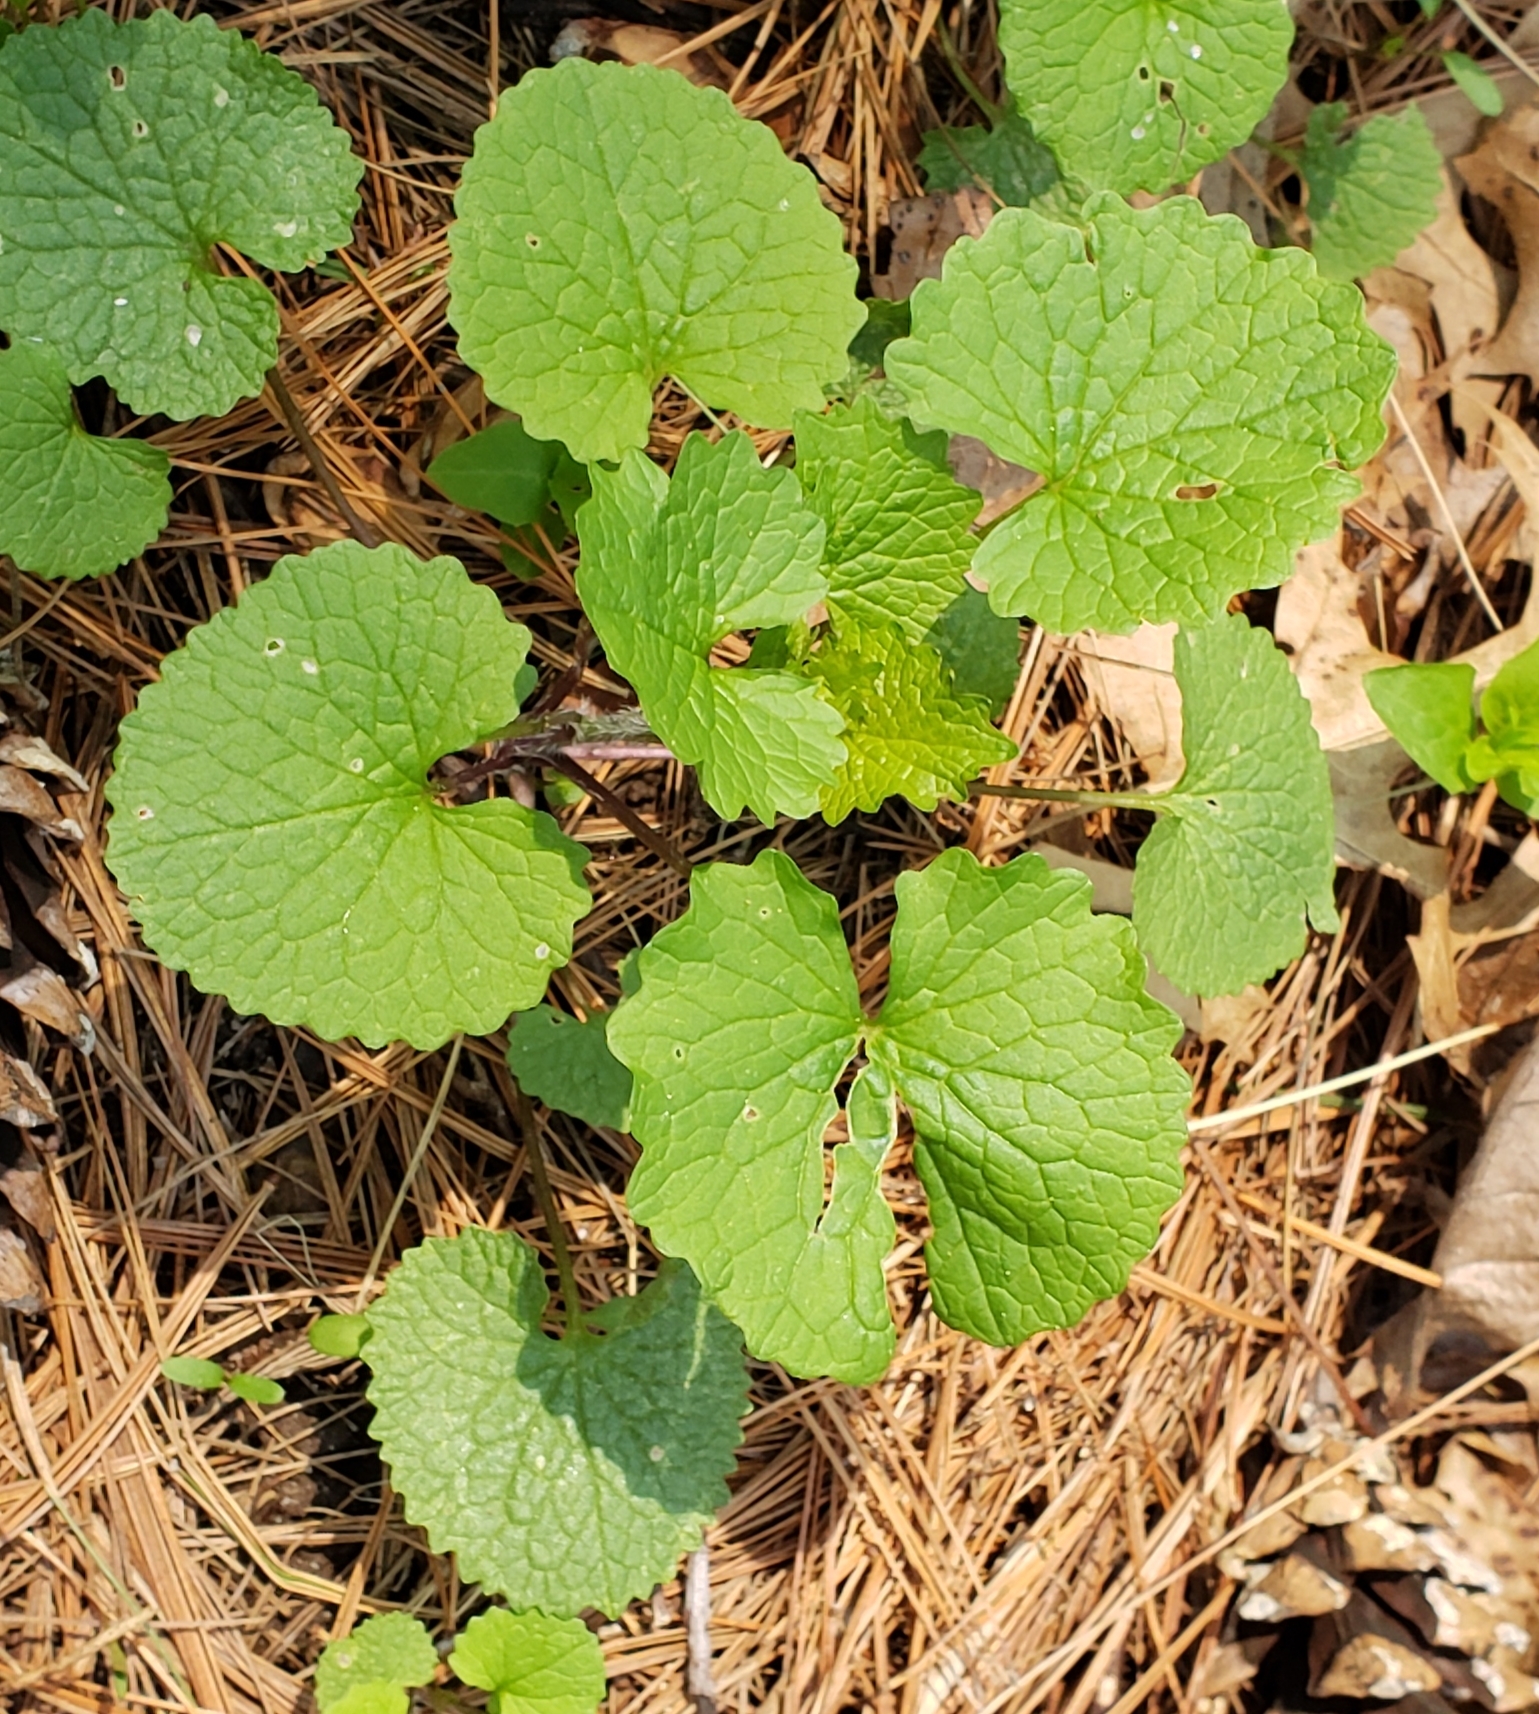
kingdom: Plantae
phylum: Tracheophyta
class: Magnoliopsida
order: Brassicales
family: Brassicaceae
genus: Alliaria
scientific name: Alliaria petiolata
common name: Garlic mustard
